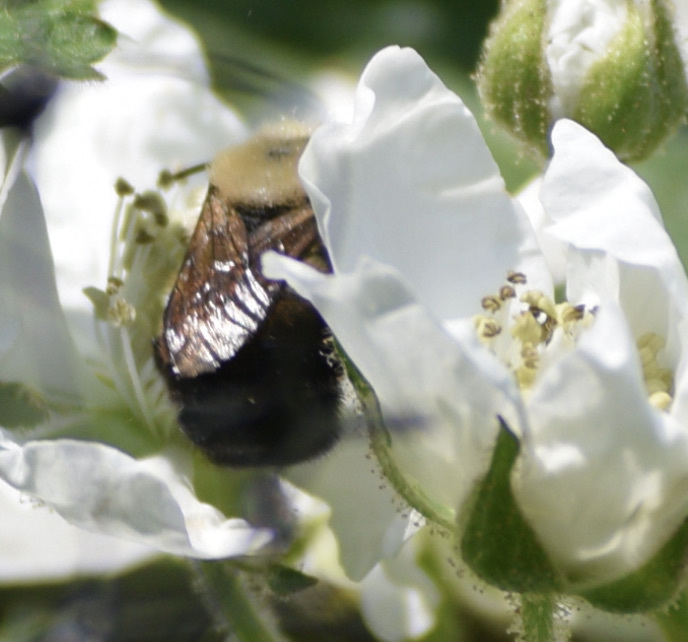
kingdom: Animalia
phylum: Arthropoda
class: Insecta
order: Hymenoptera
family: Megachilidae
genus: Osmia
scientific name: Osmia bucephala
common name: Bufflehead mason bee
